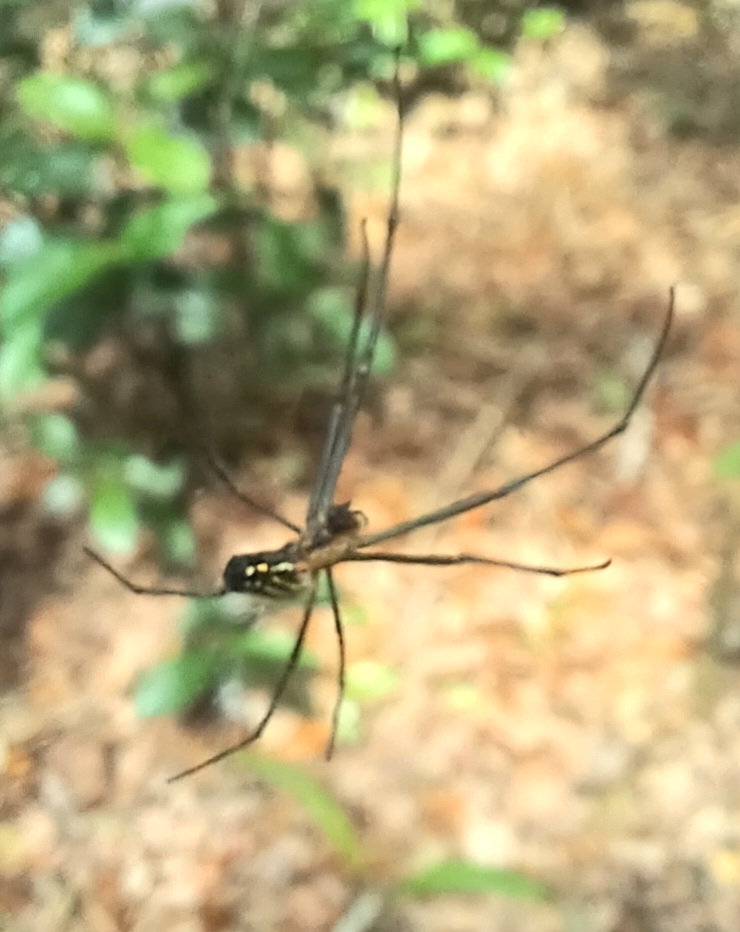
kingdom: Animalia
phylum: Arthropoda
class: Arachnida
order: Araneae
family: Tetragnathidae
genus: Leucauge
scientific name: Leucauge argyra
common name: Longjawed orb weavers
